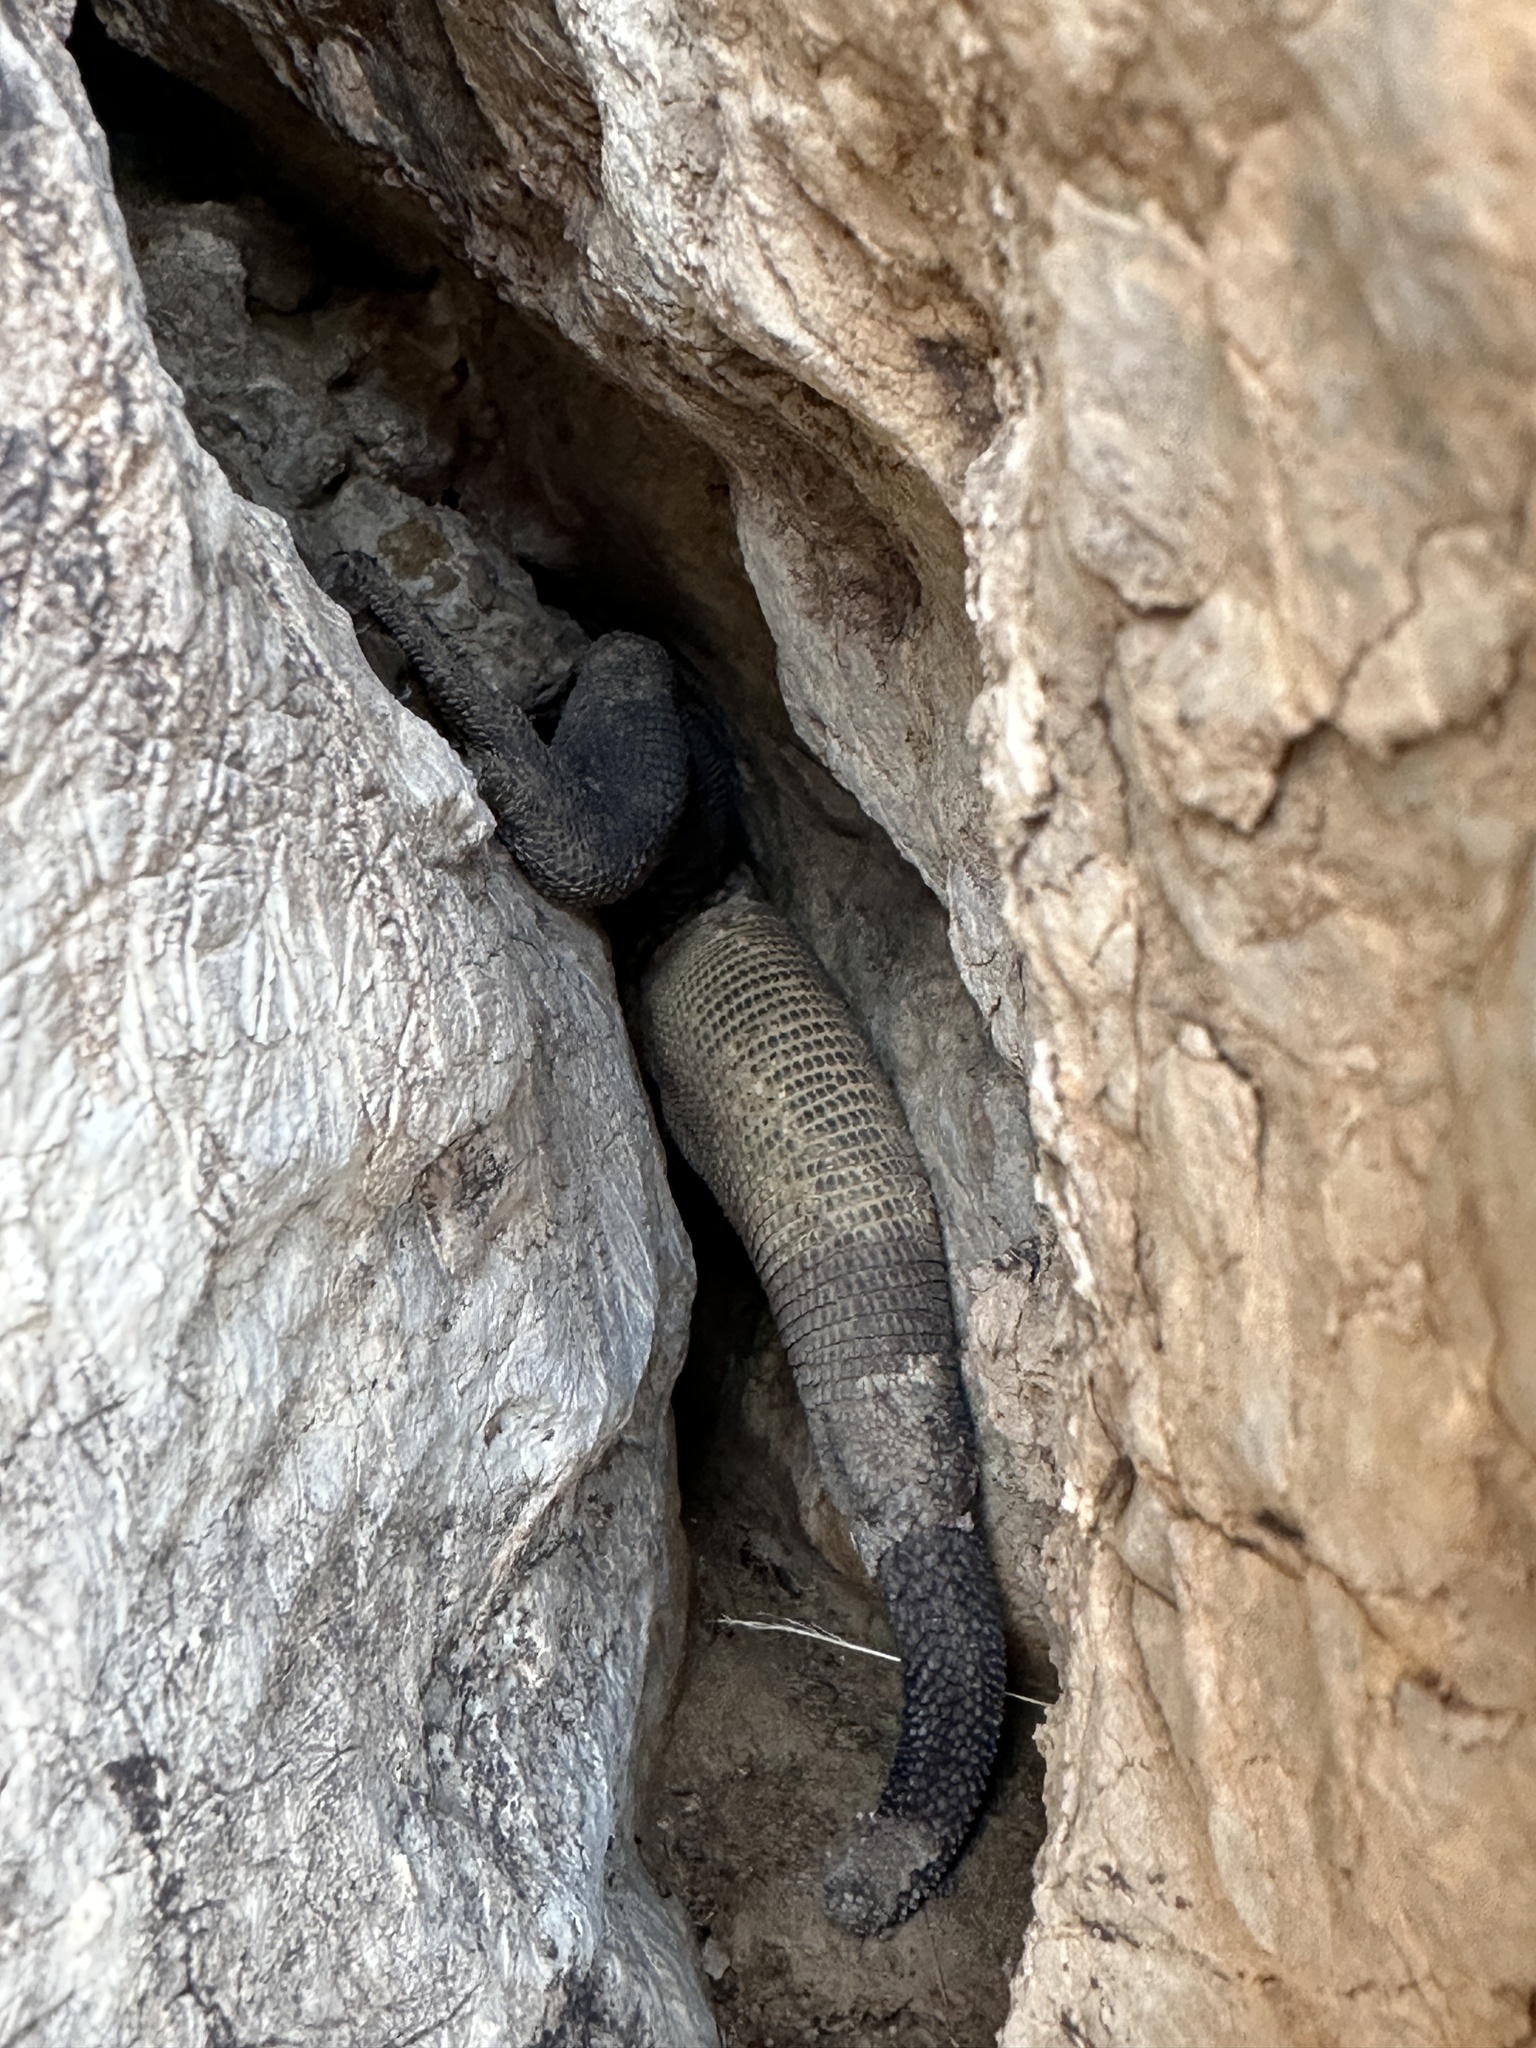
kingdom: Animalia
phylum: Chordata
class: Squamata
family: Iguanidae
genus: Sauromalus
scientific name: Sauromalus ater
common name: Northern chuckwalla
